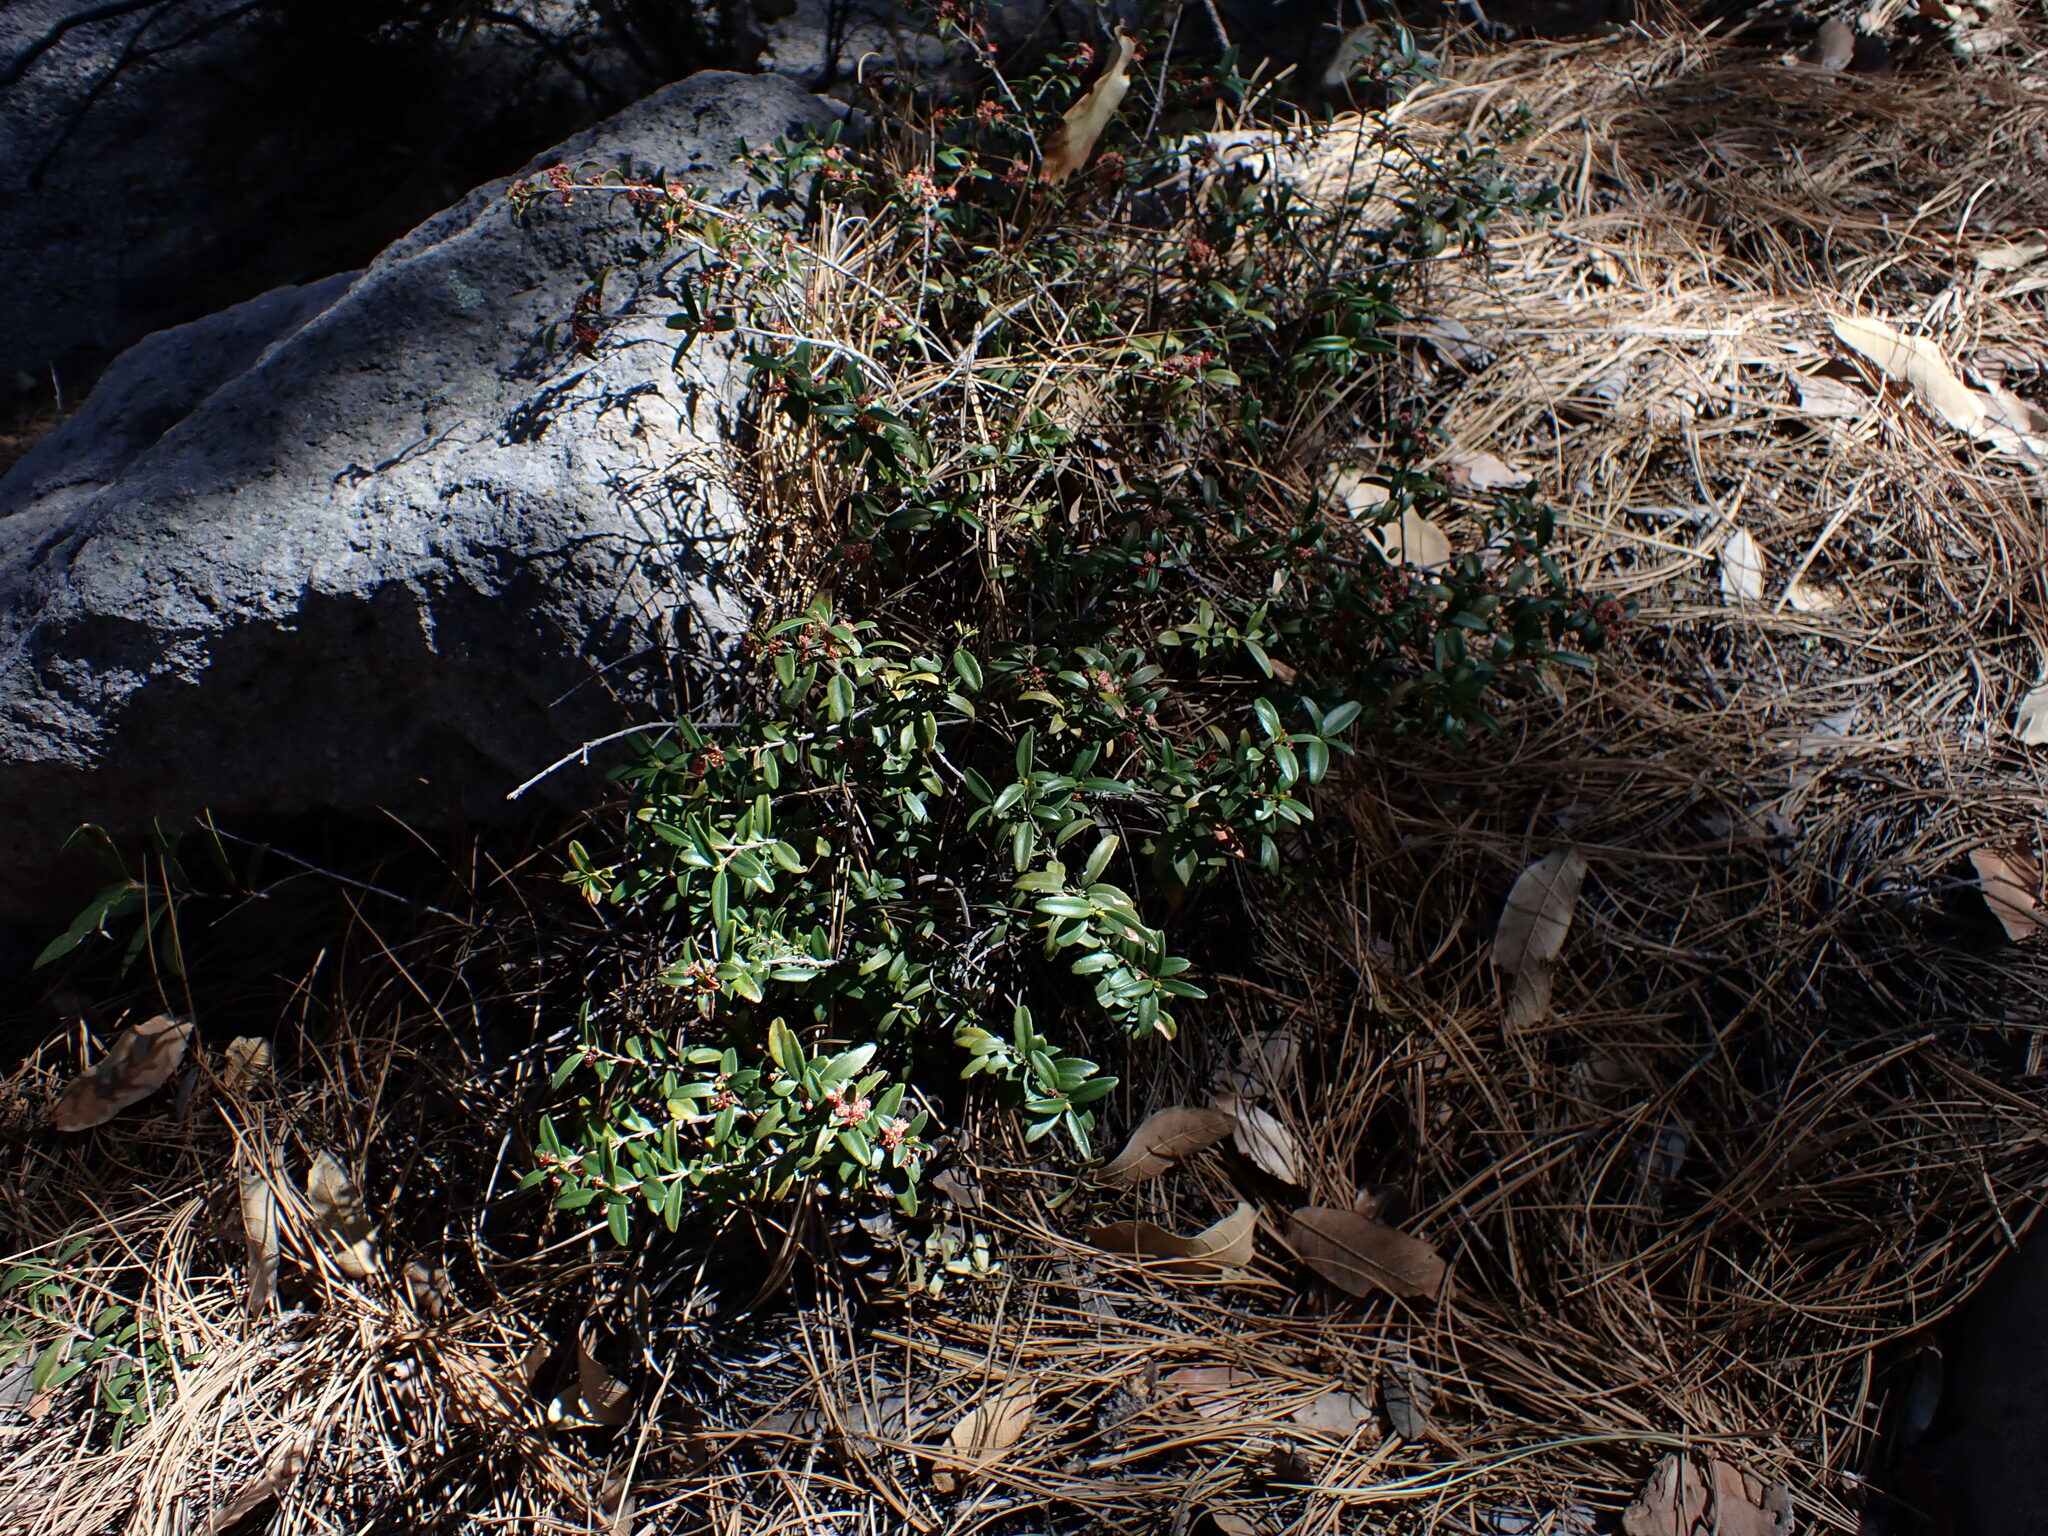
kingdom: Plantae
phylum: Tracheophyta
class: Magnoliopsida
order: Celastrales
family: Celastraceae
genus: Paxistima
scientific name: Paxistima myrsinites
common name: Mountain-lover
